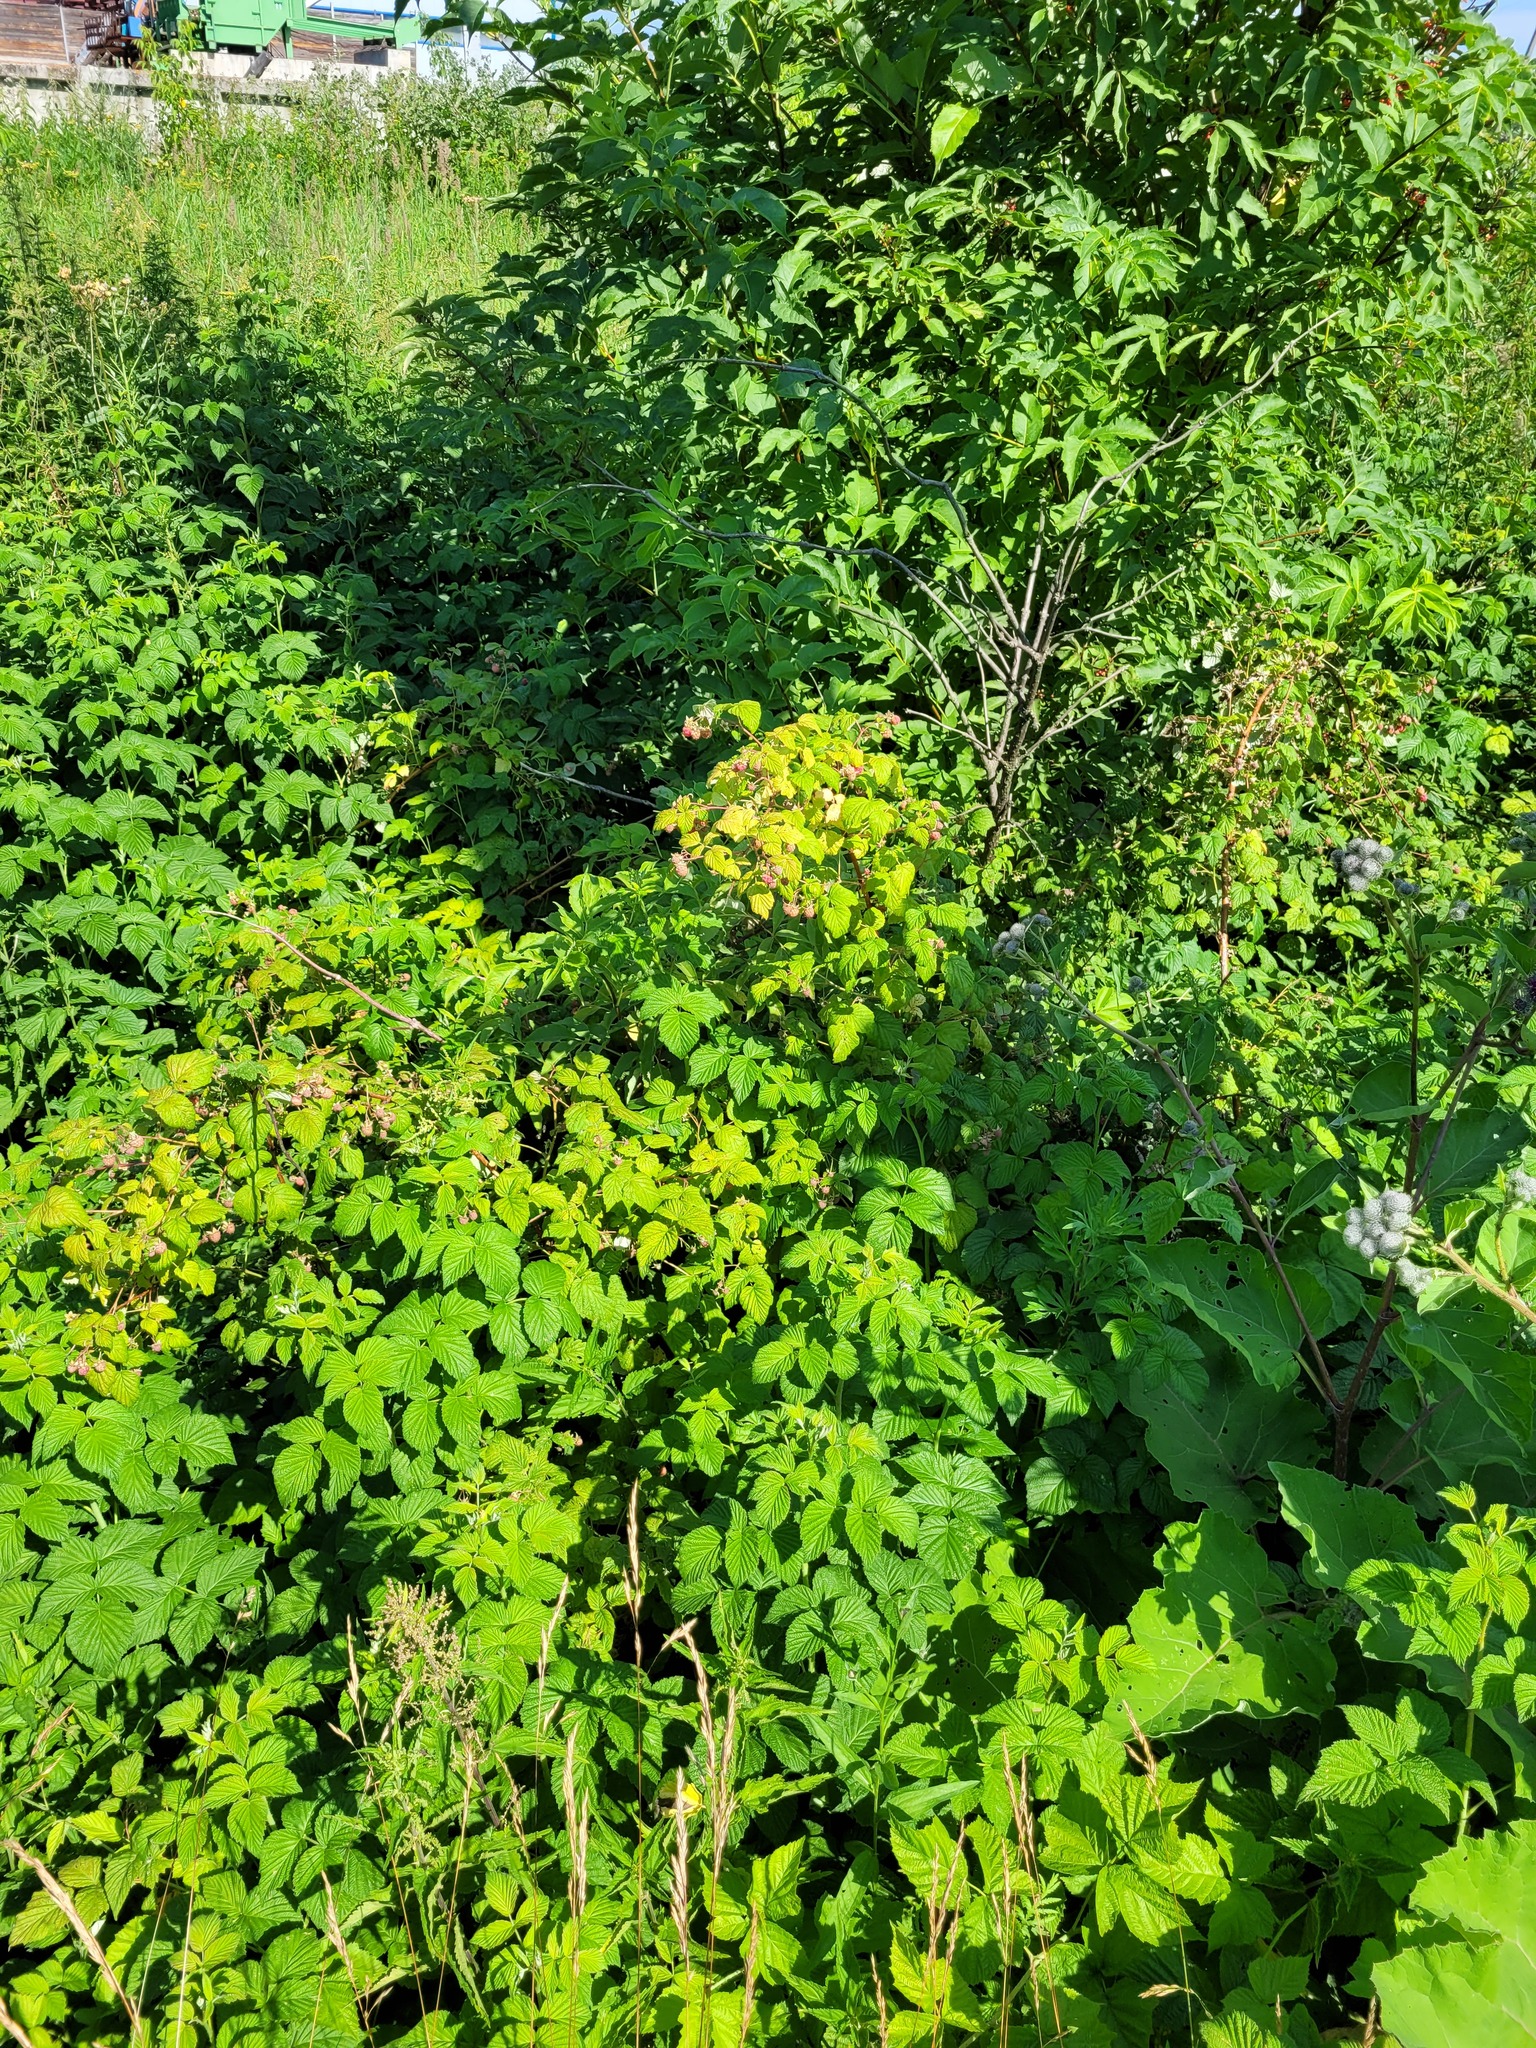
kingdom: Plantae
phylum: Tracheophyta
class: Magnoliopsida
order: Rosales
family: Rosaceae
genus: Rubus
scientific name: Rubus idaeus
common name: Raspberry
